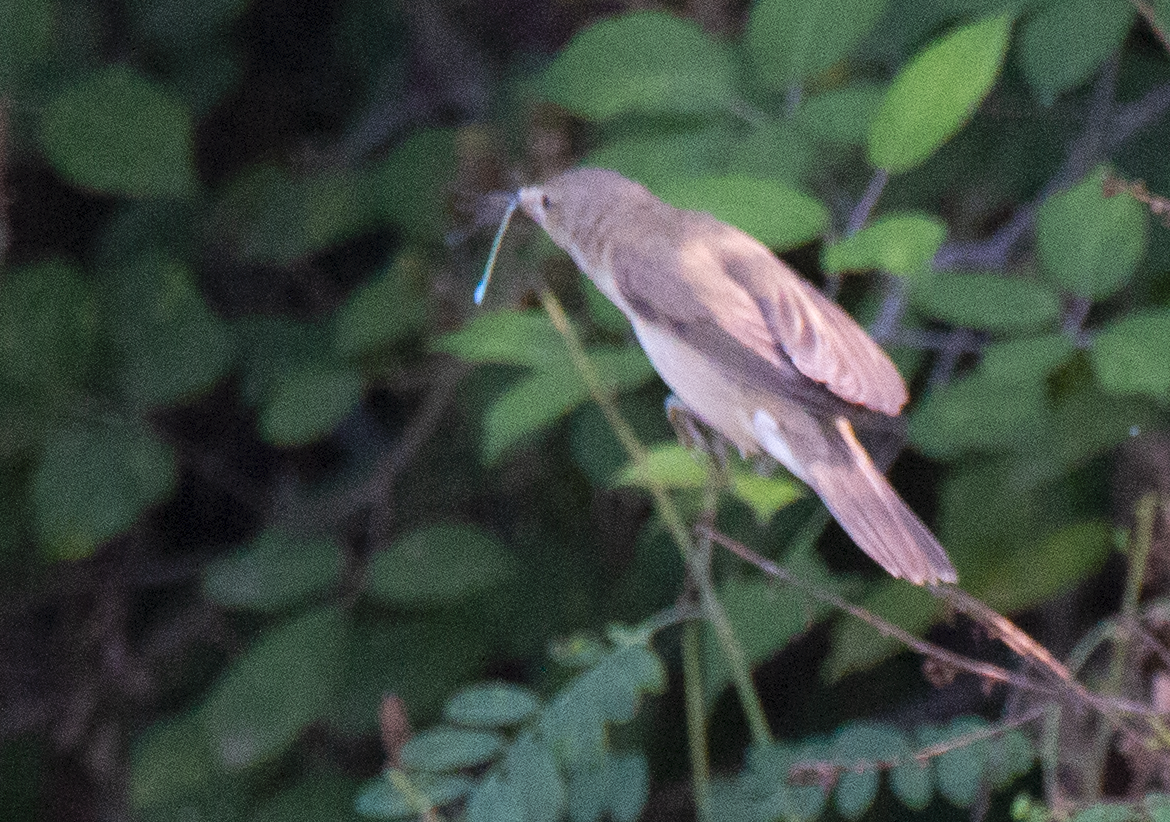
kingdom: Animalia
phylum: Chordata
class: Aves
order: Passeriformes
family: Acrocephalidae
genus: Acrocephalus
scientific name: Acrocephalus scirpaceus
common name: Eurasian reed warbler
